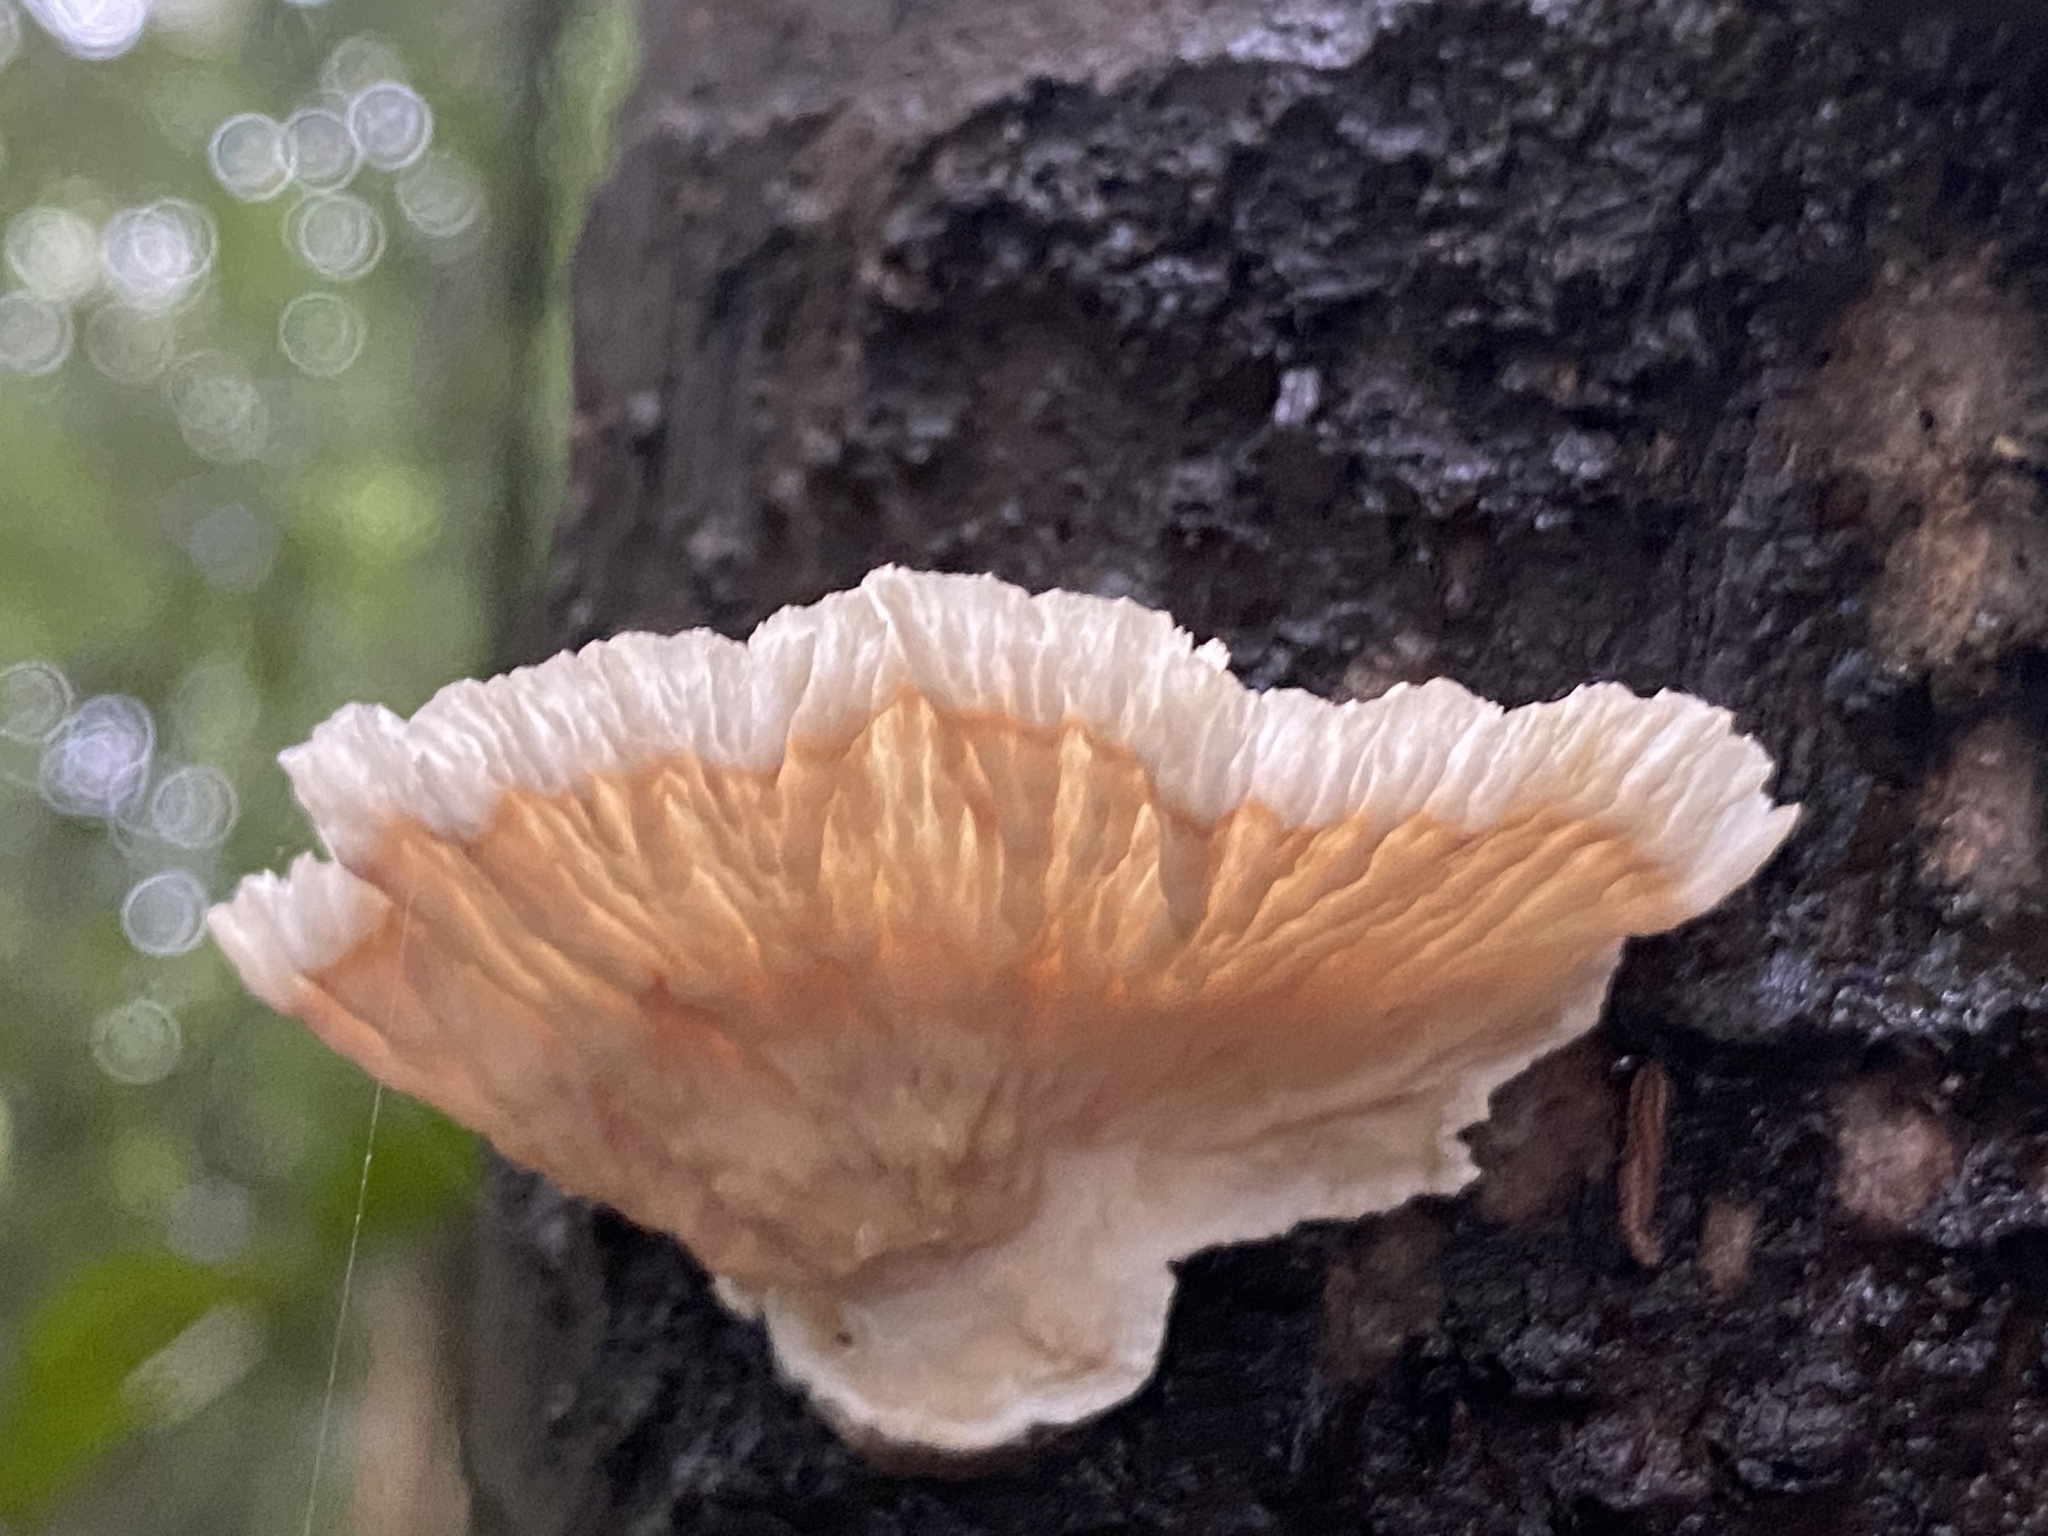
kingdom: Fungi
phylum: Basidiomycota
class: Agaricomycetes
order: Polyporales
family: Panaceae
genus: Cymatoderma
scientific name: Cymatoderma dendriticum
